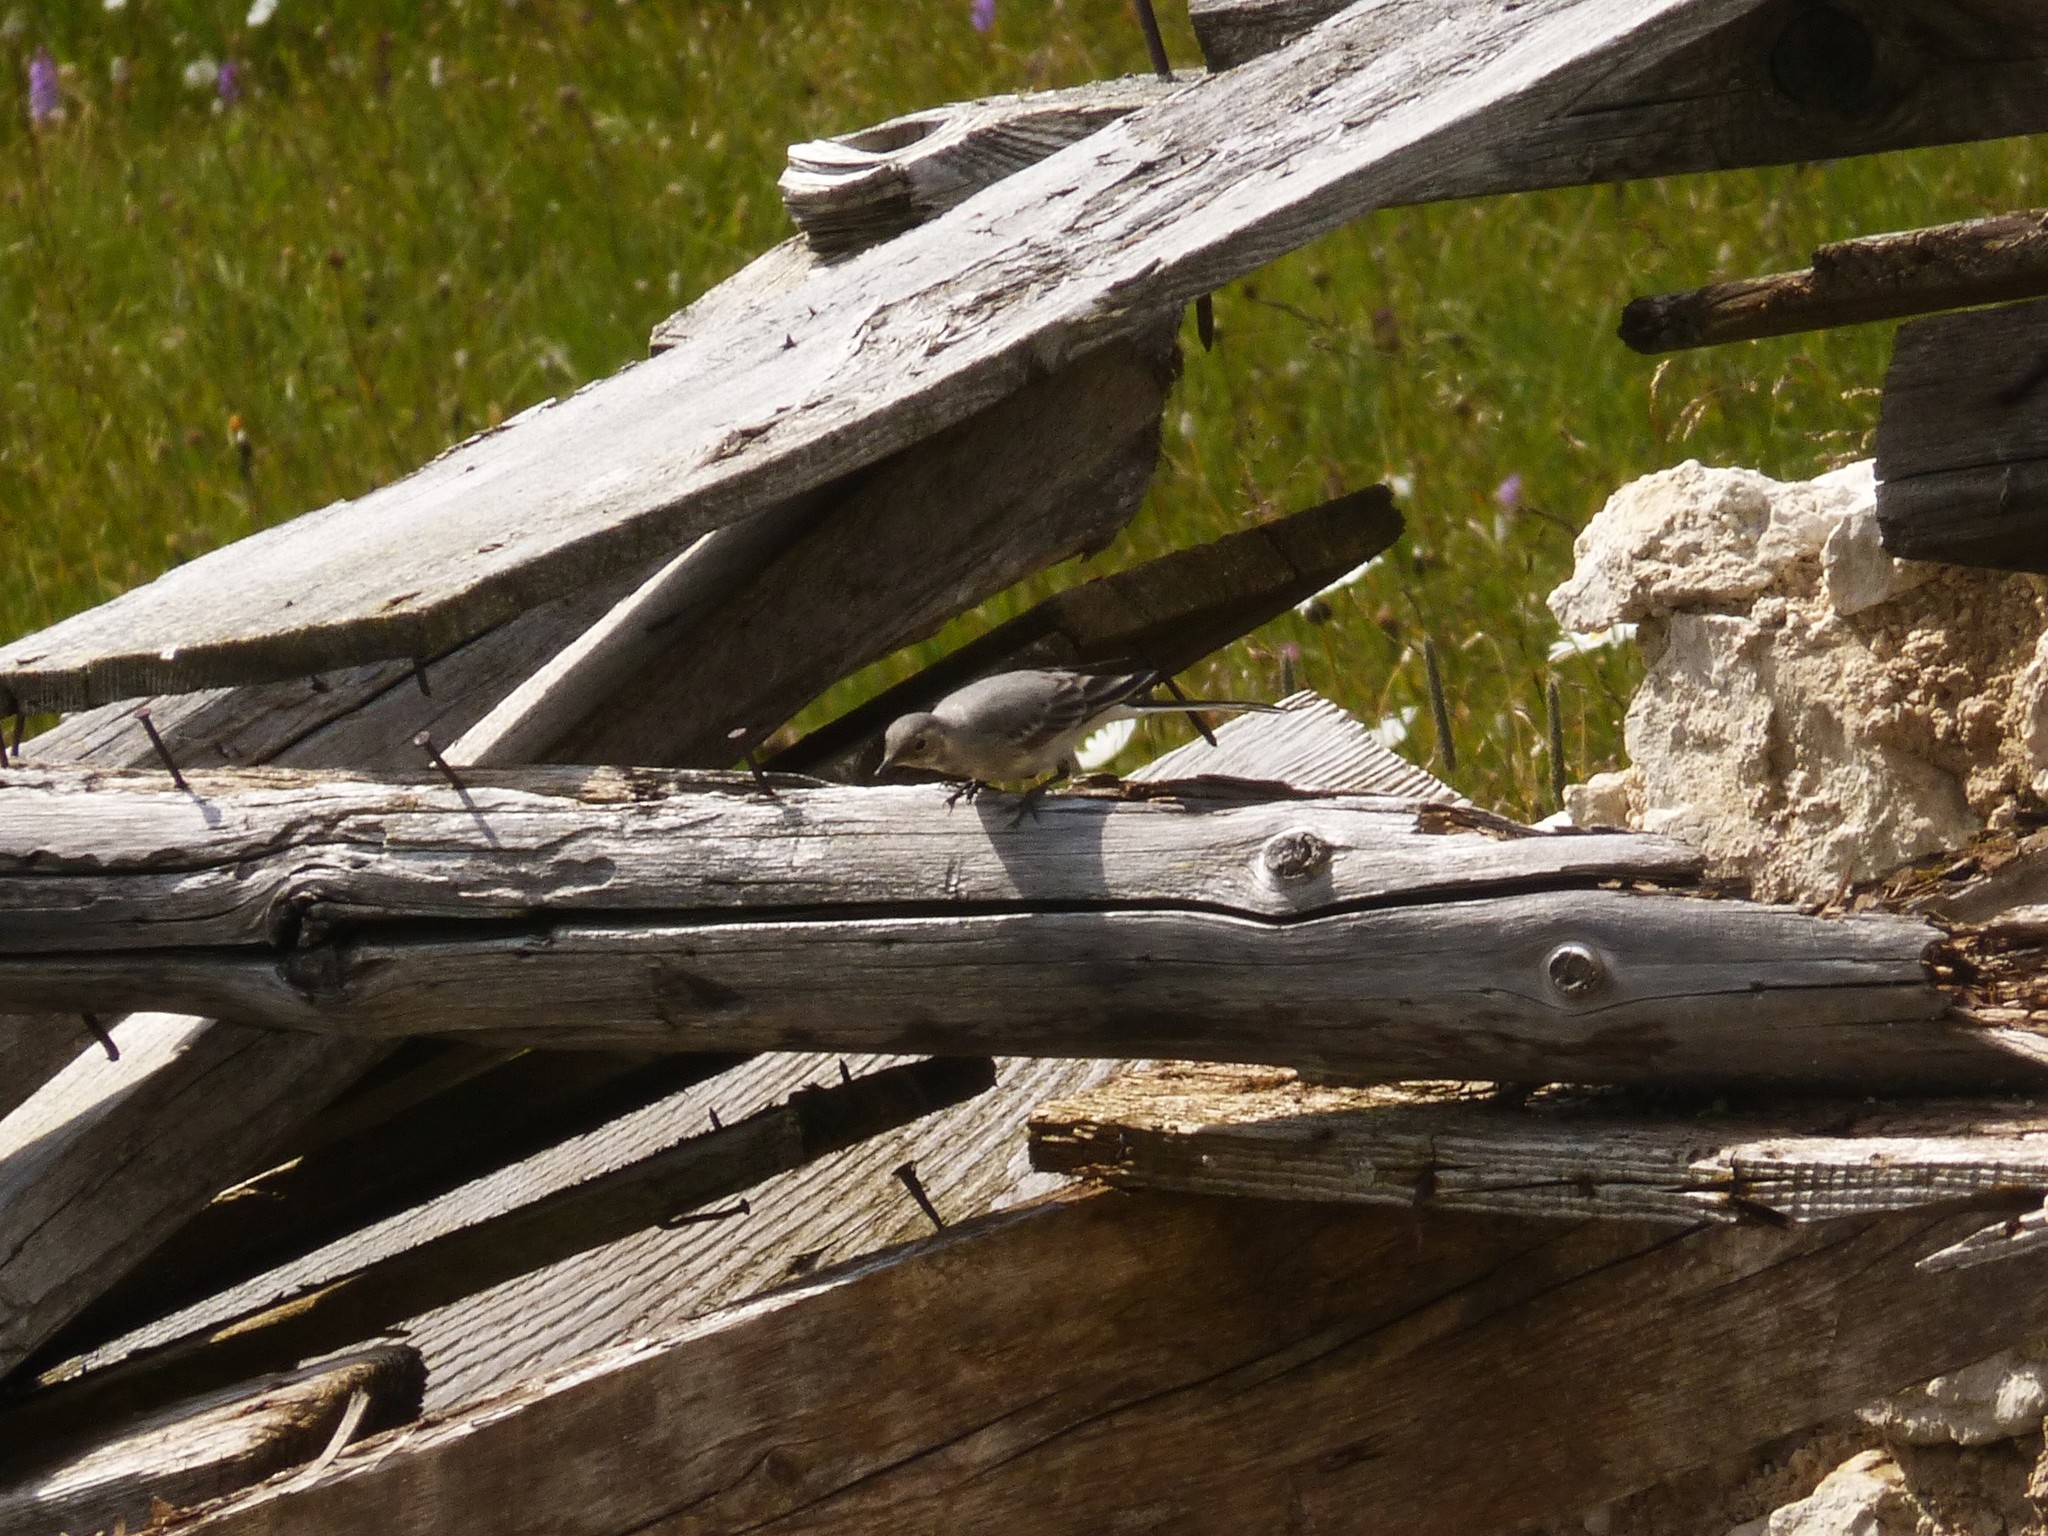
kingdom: Animalia
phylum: Chordata
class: Aves
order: Passeriformes
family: Motacillidae
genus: Motacilla
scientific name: Motacilla flava
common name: Western yellow wagtail
